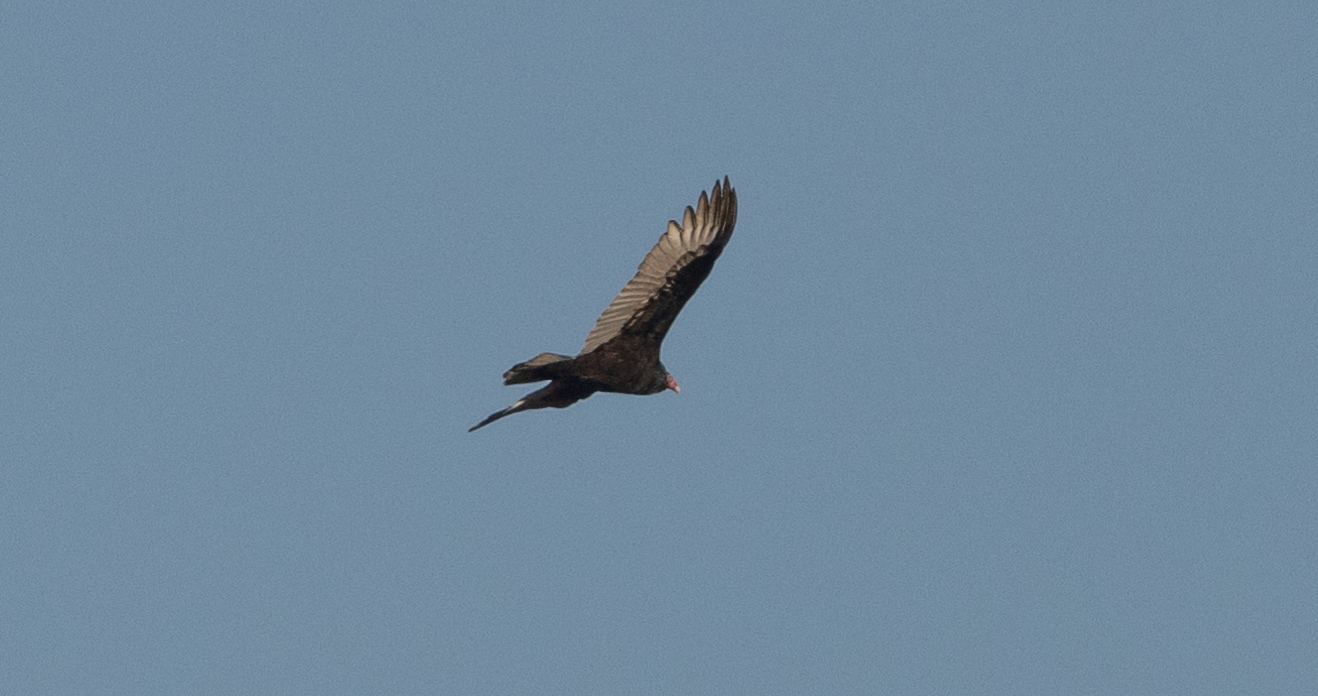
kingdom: Animalia
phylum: Chordata
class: Aves
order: Accipitriformes
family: Cathartidae
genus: Cathartes
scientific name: Cathartes aura
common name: Turkey vulture
